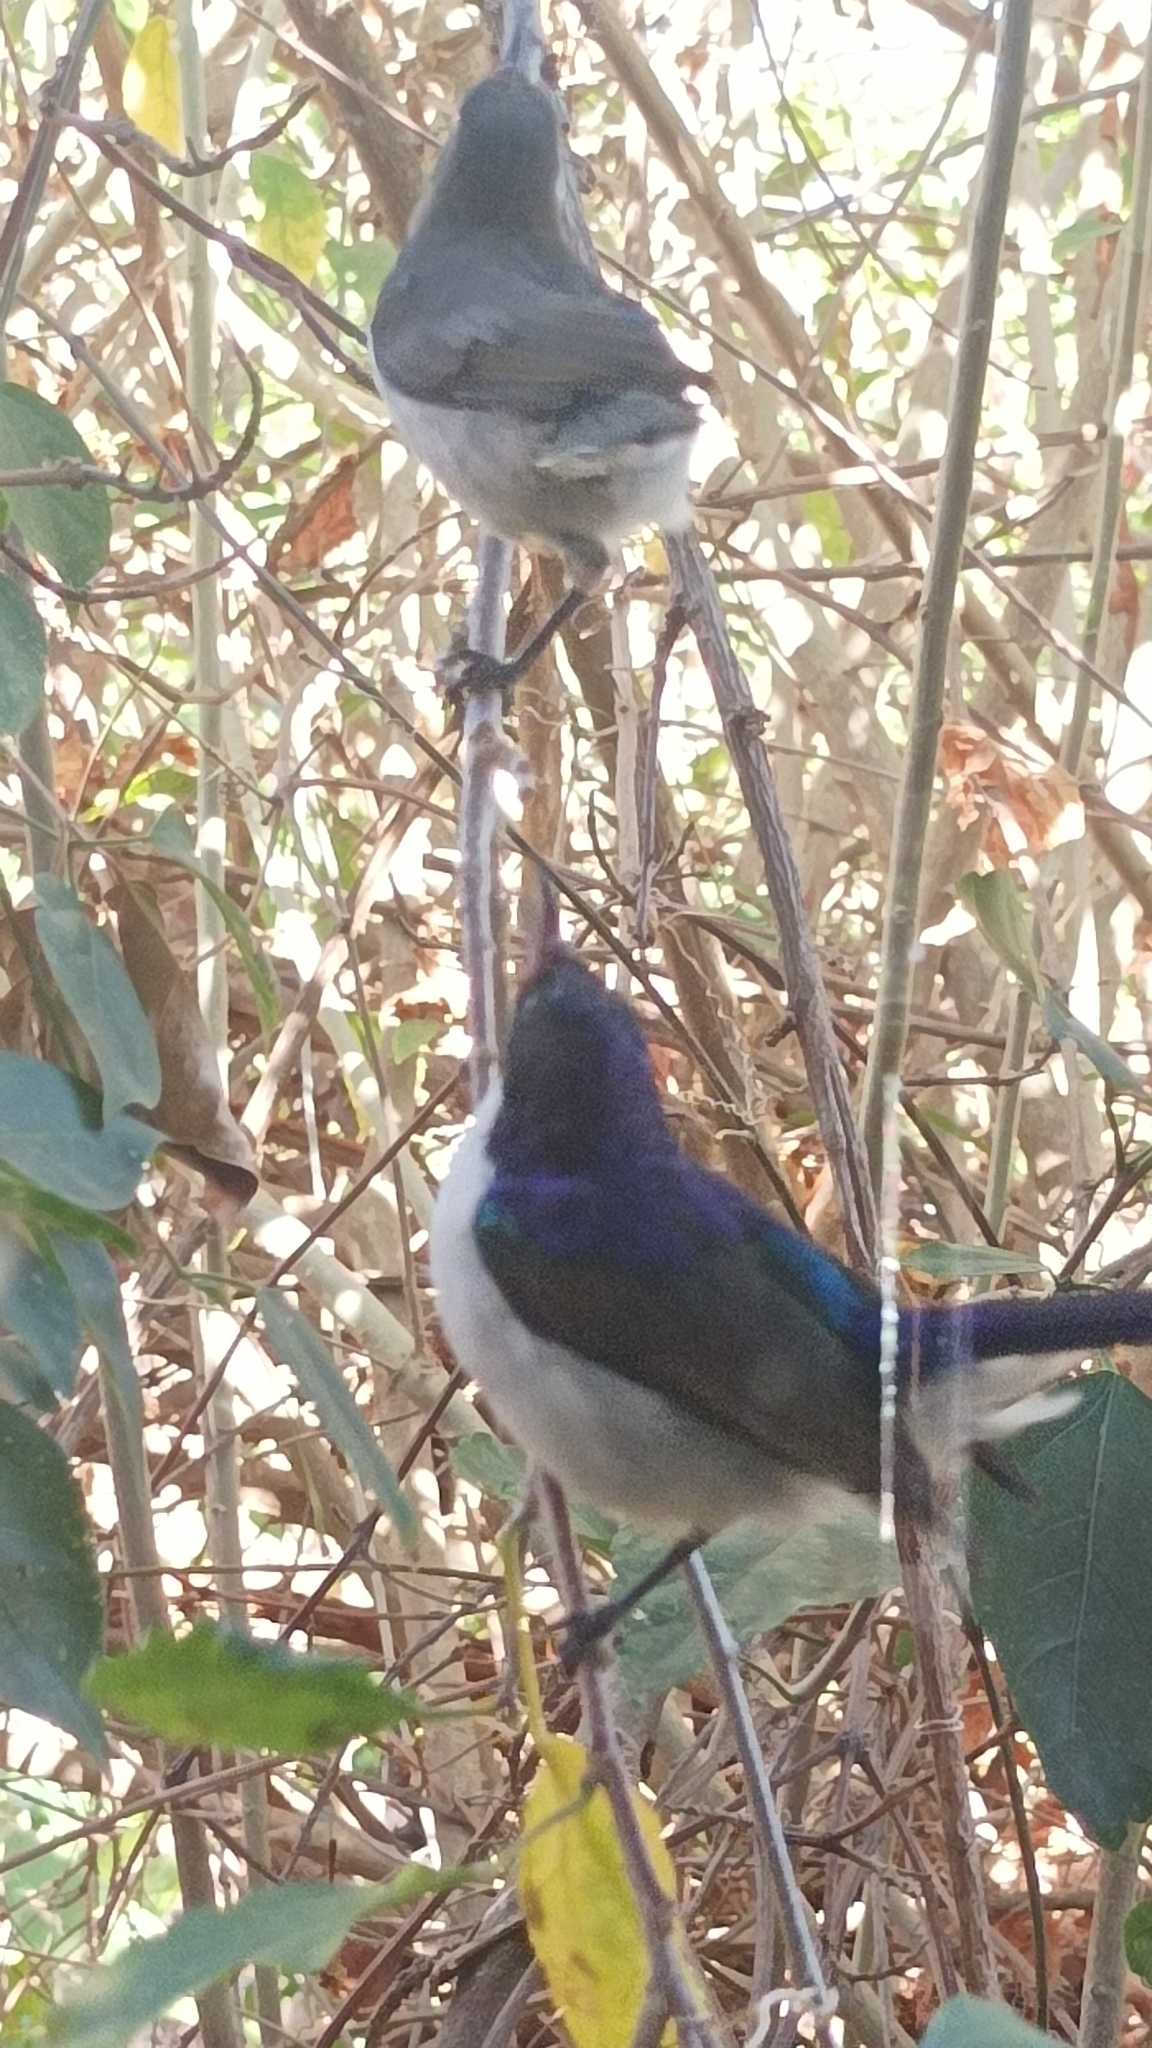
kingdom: Animalia
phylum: Chordata
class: Aves
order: Passeriformes
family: Nectariniidae
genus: Anthreptes
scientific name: Anthreptes orientalis
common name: Eastern violet-backed sunbird
